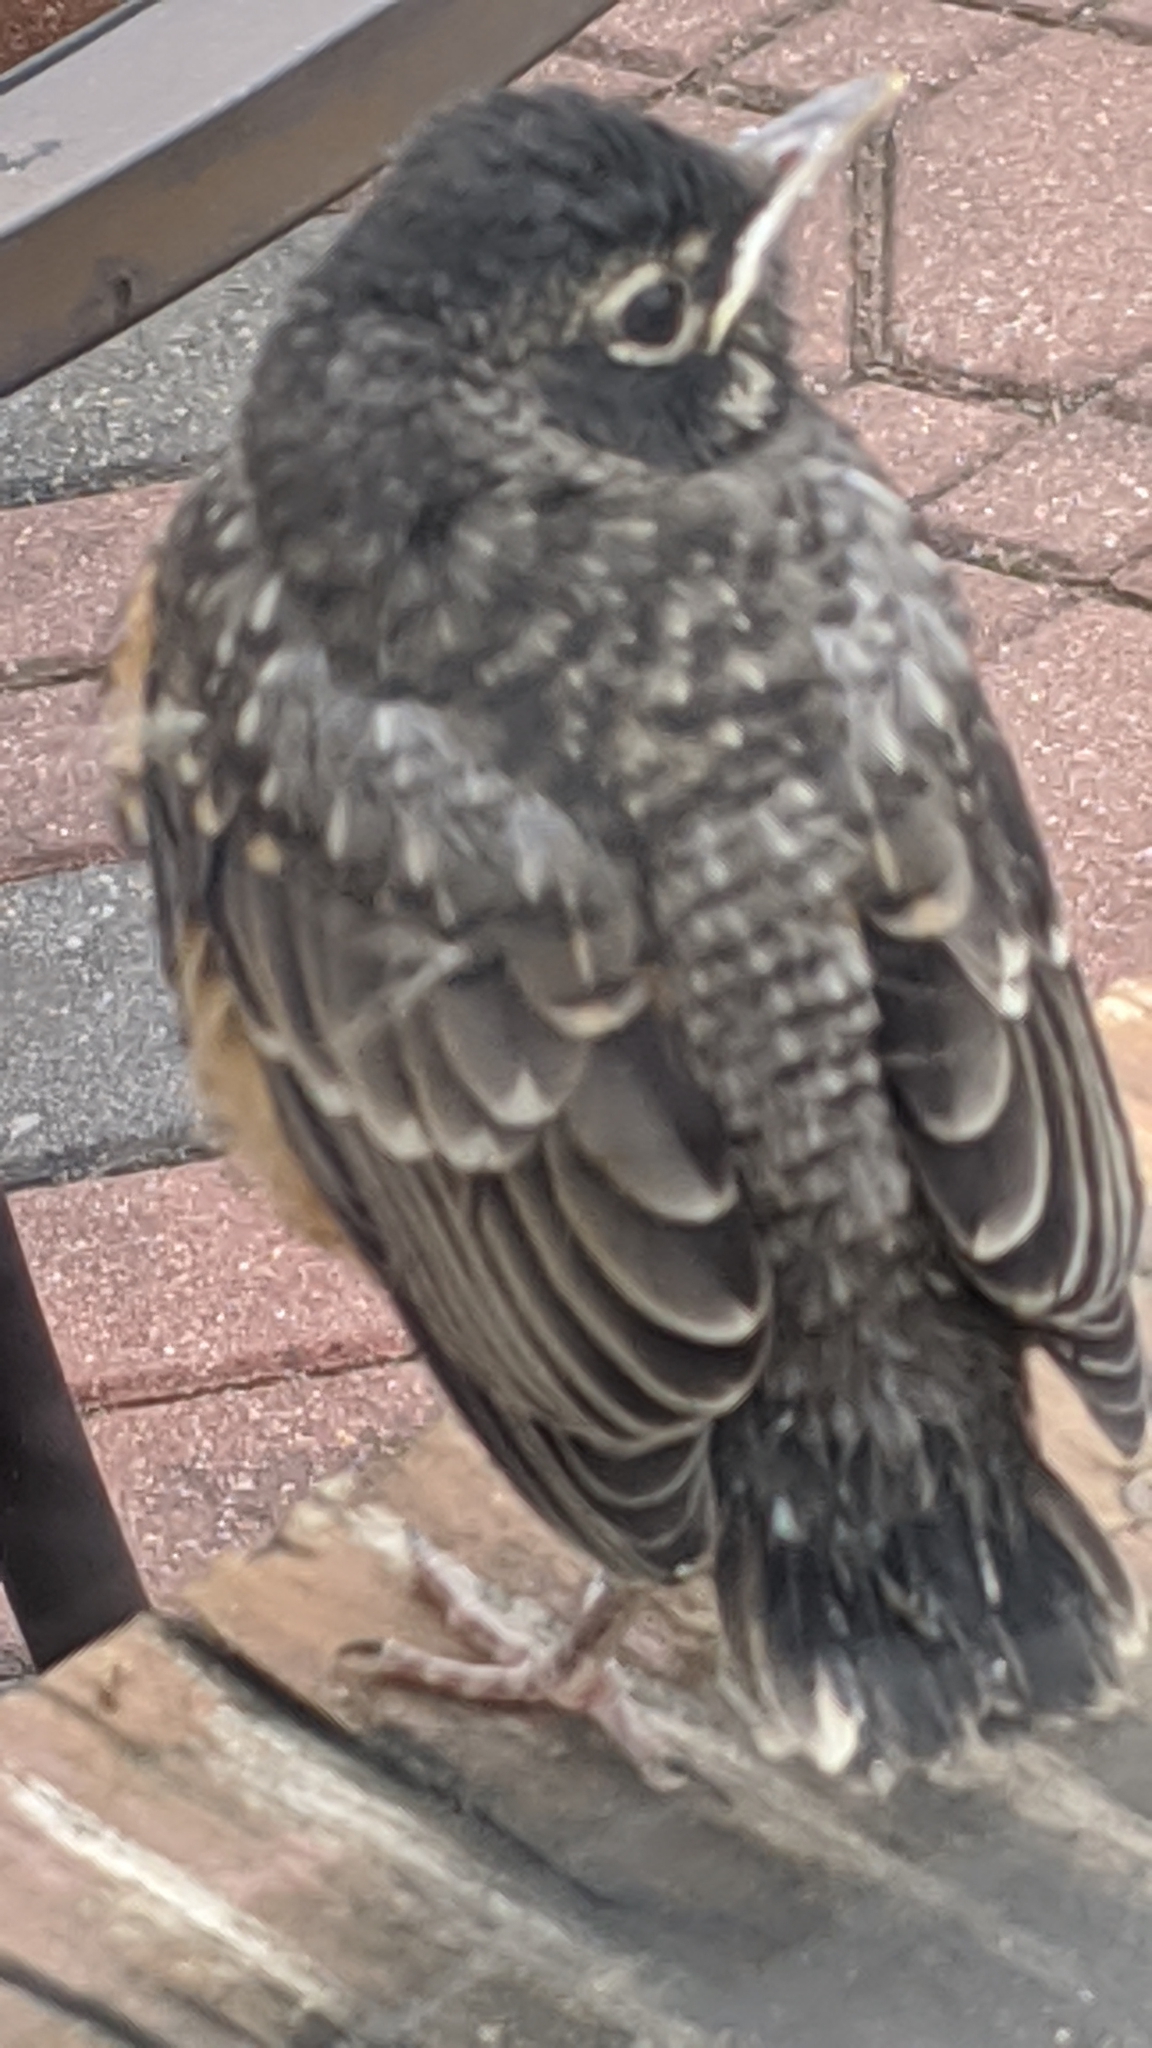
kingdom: Animalia
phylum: Chordata
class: Aves
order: Passeriformes
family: Turdidae
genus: Turdus
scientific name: Turdus migratorius
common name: American robin
